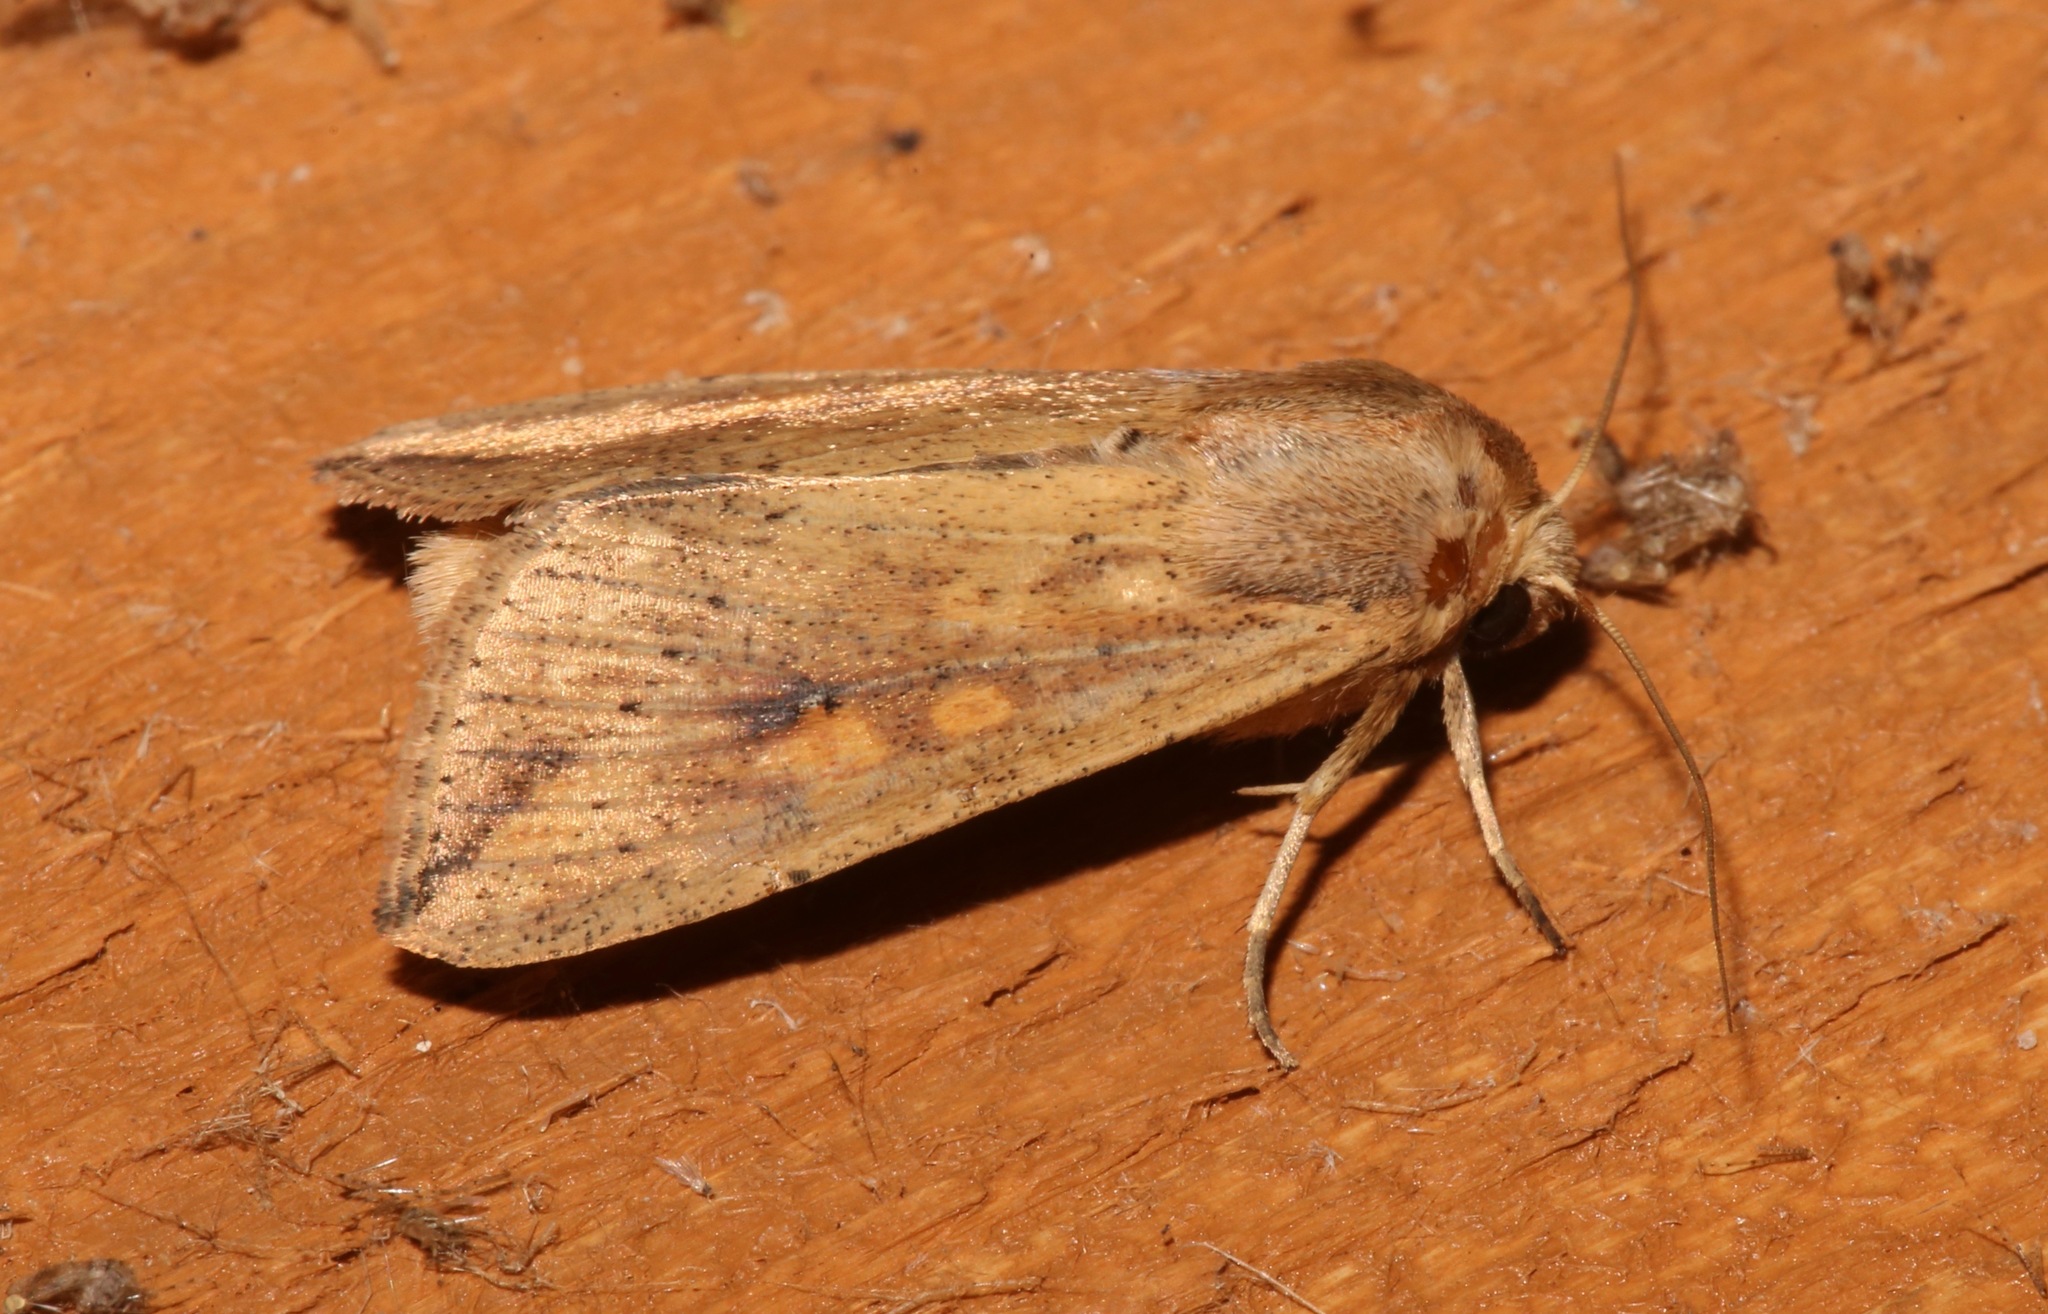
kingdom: Animalia
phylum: Arthropoda
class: Insecta
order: Lepidoptera
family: Noctuidae
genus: Mythimna
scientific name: Mythimna unipuncta
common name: White-speck
